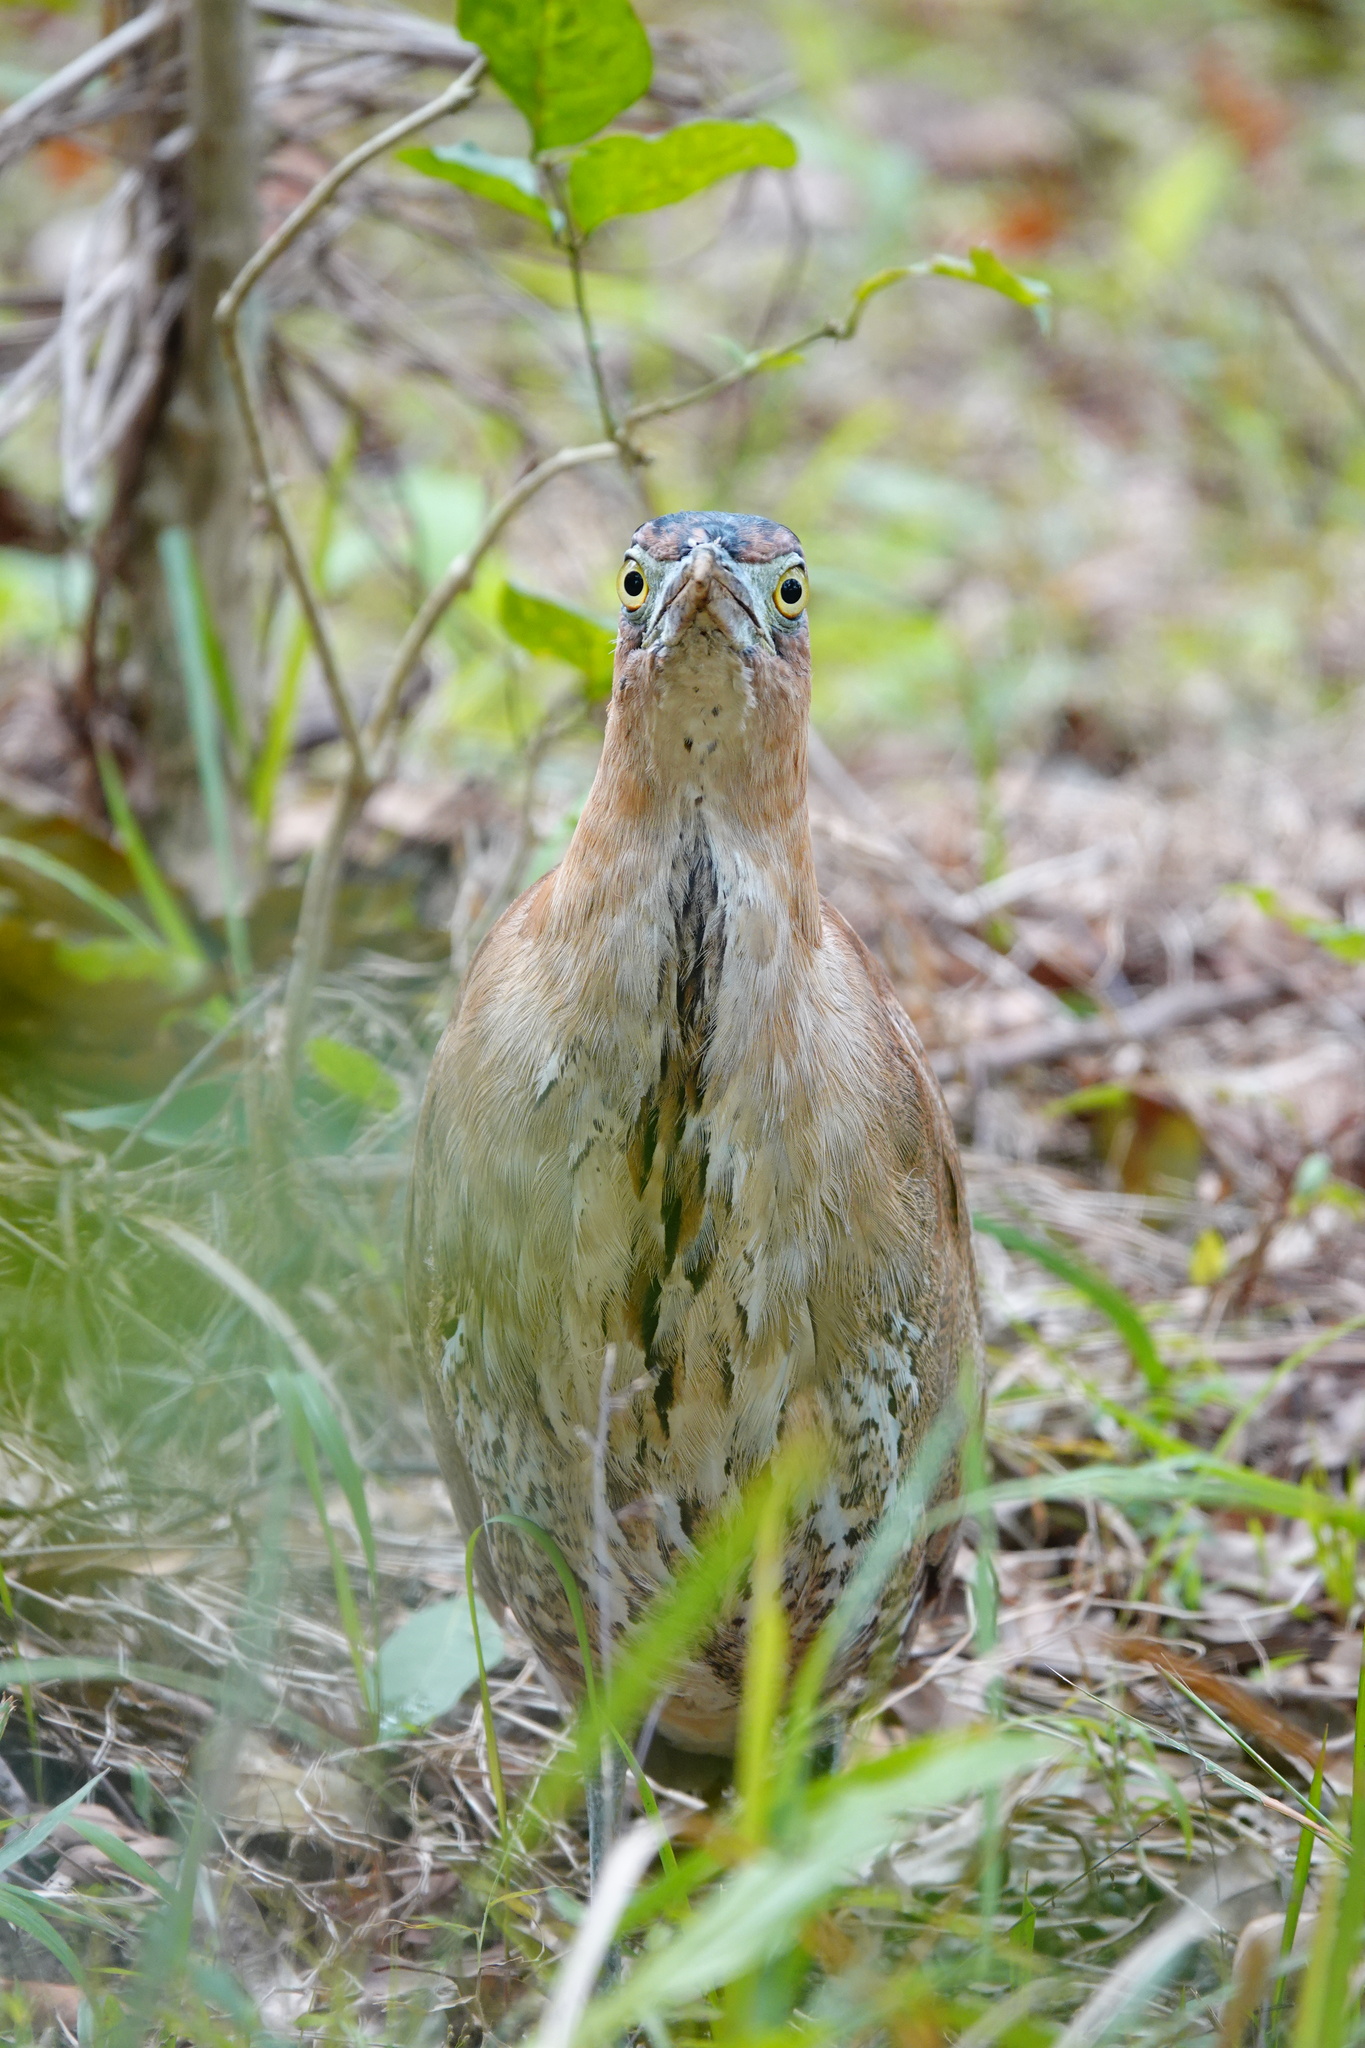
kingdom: Animalia
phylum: Chordata
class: Aves
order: Pelecaniformes
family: Ardeidae
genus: Gorsachius
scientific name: Gorsachius melanolophus
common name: Malayan night heron
